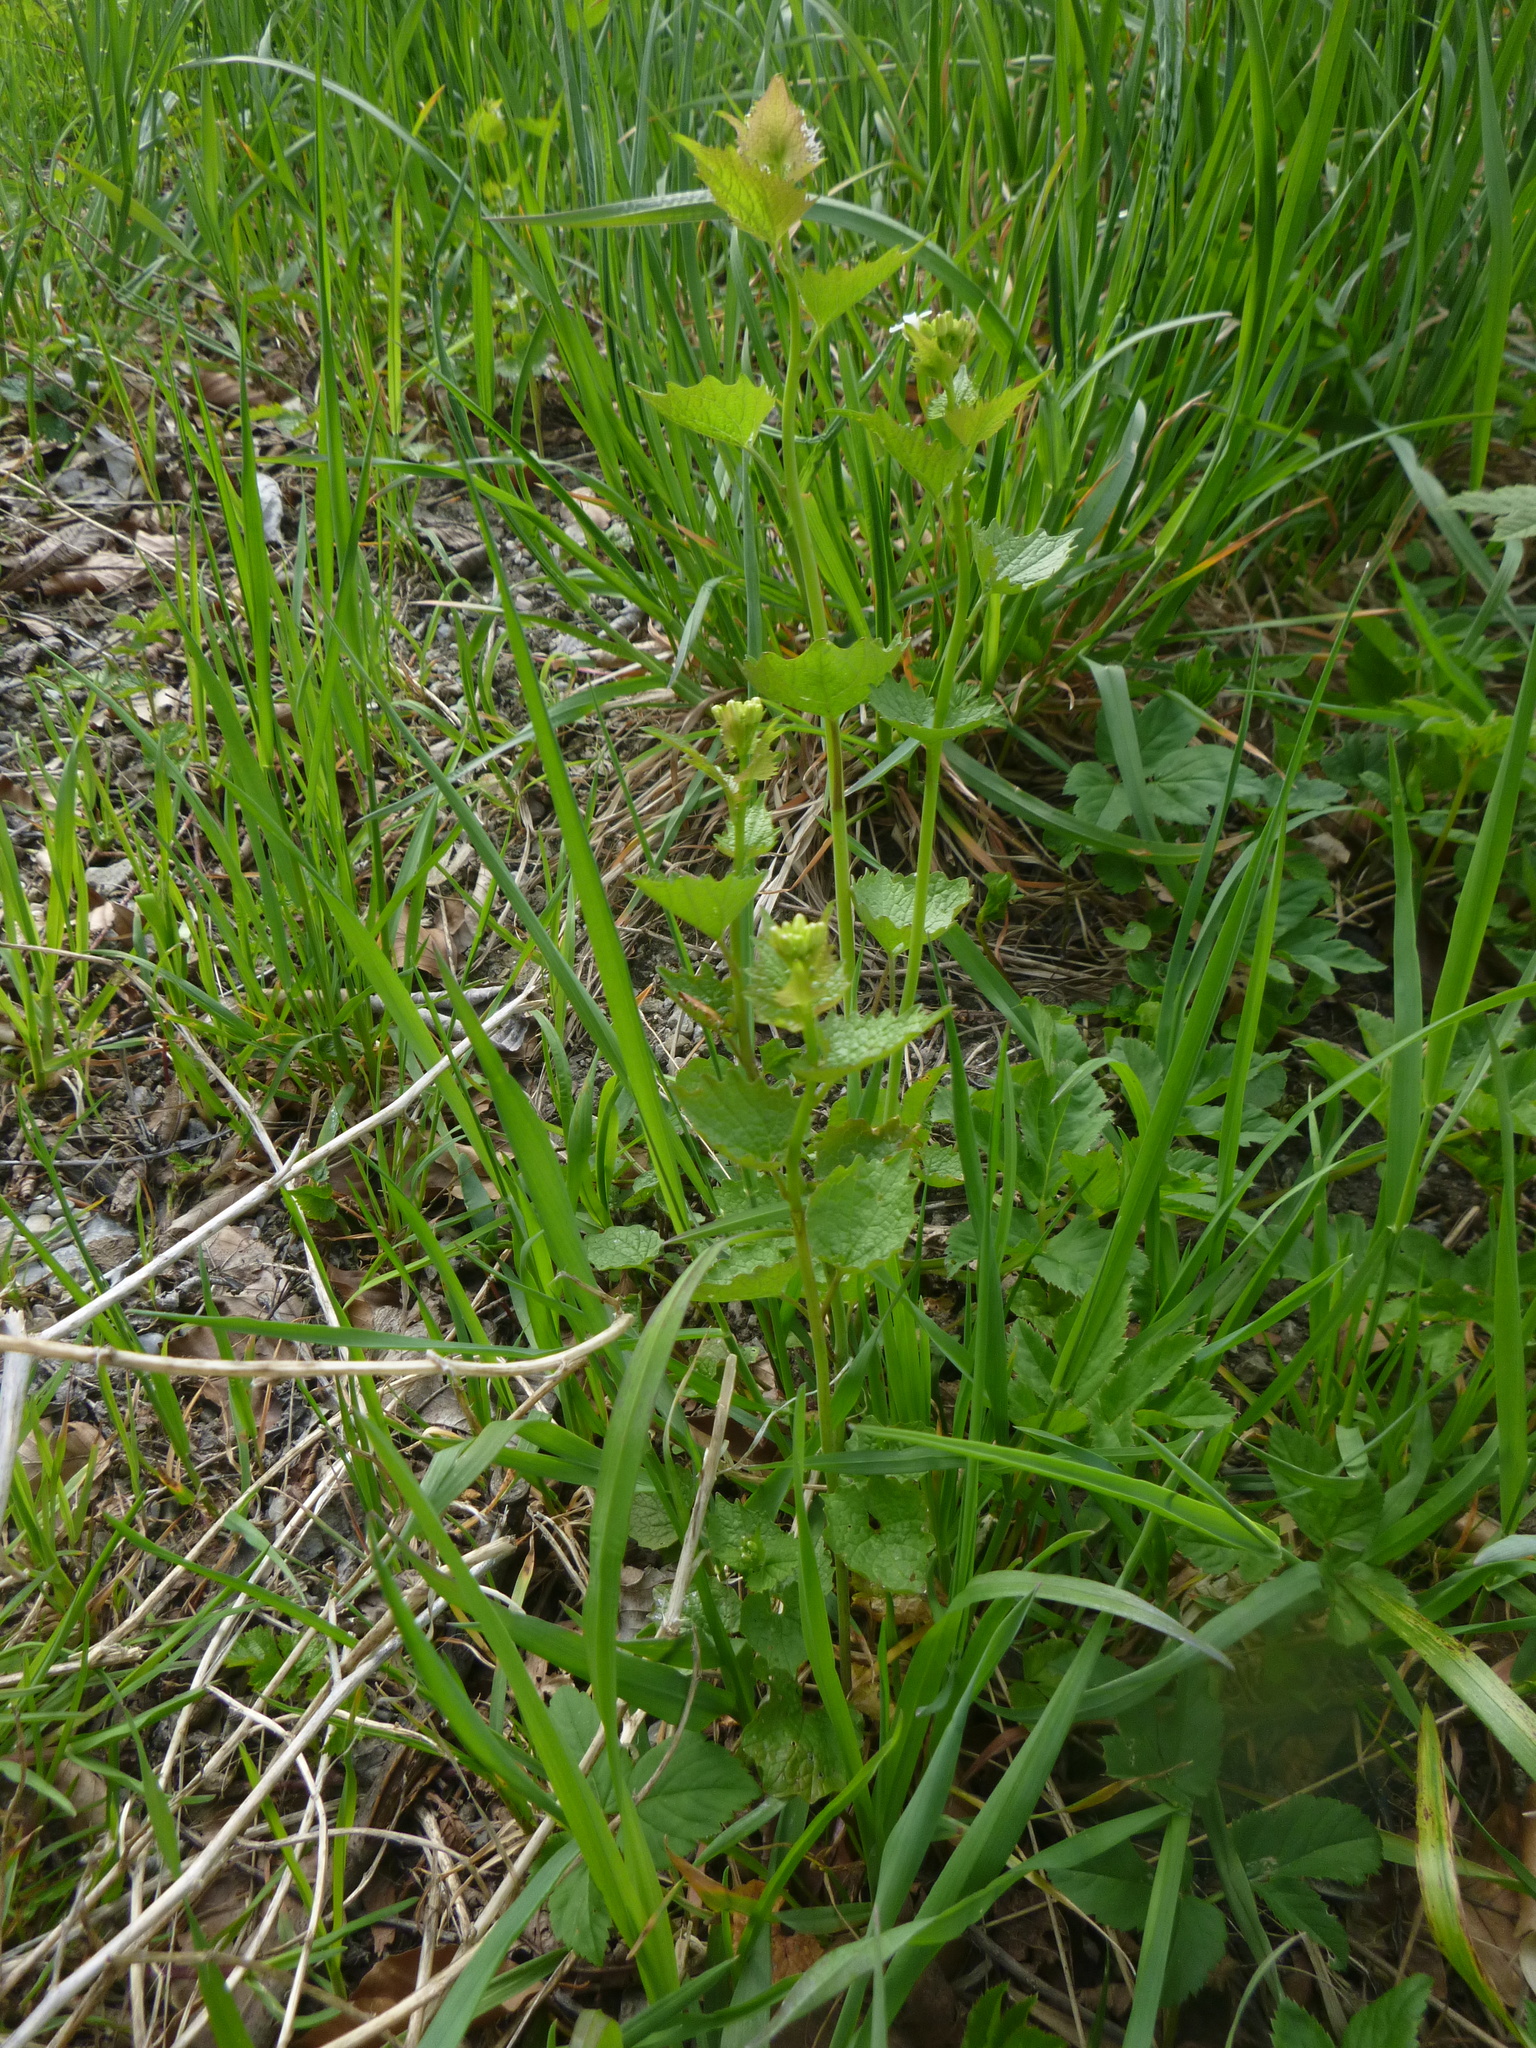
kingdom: Plantae
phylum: Tracheophyta
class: Magnoliopsida
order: Brassicales
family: Brassicaceae
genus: Alliaria
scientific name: Alliaria petiolata
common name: Garlic mustard
